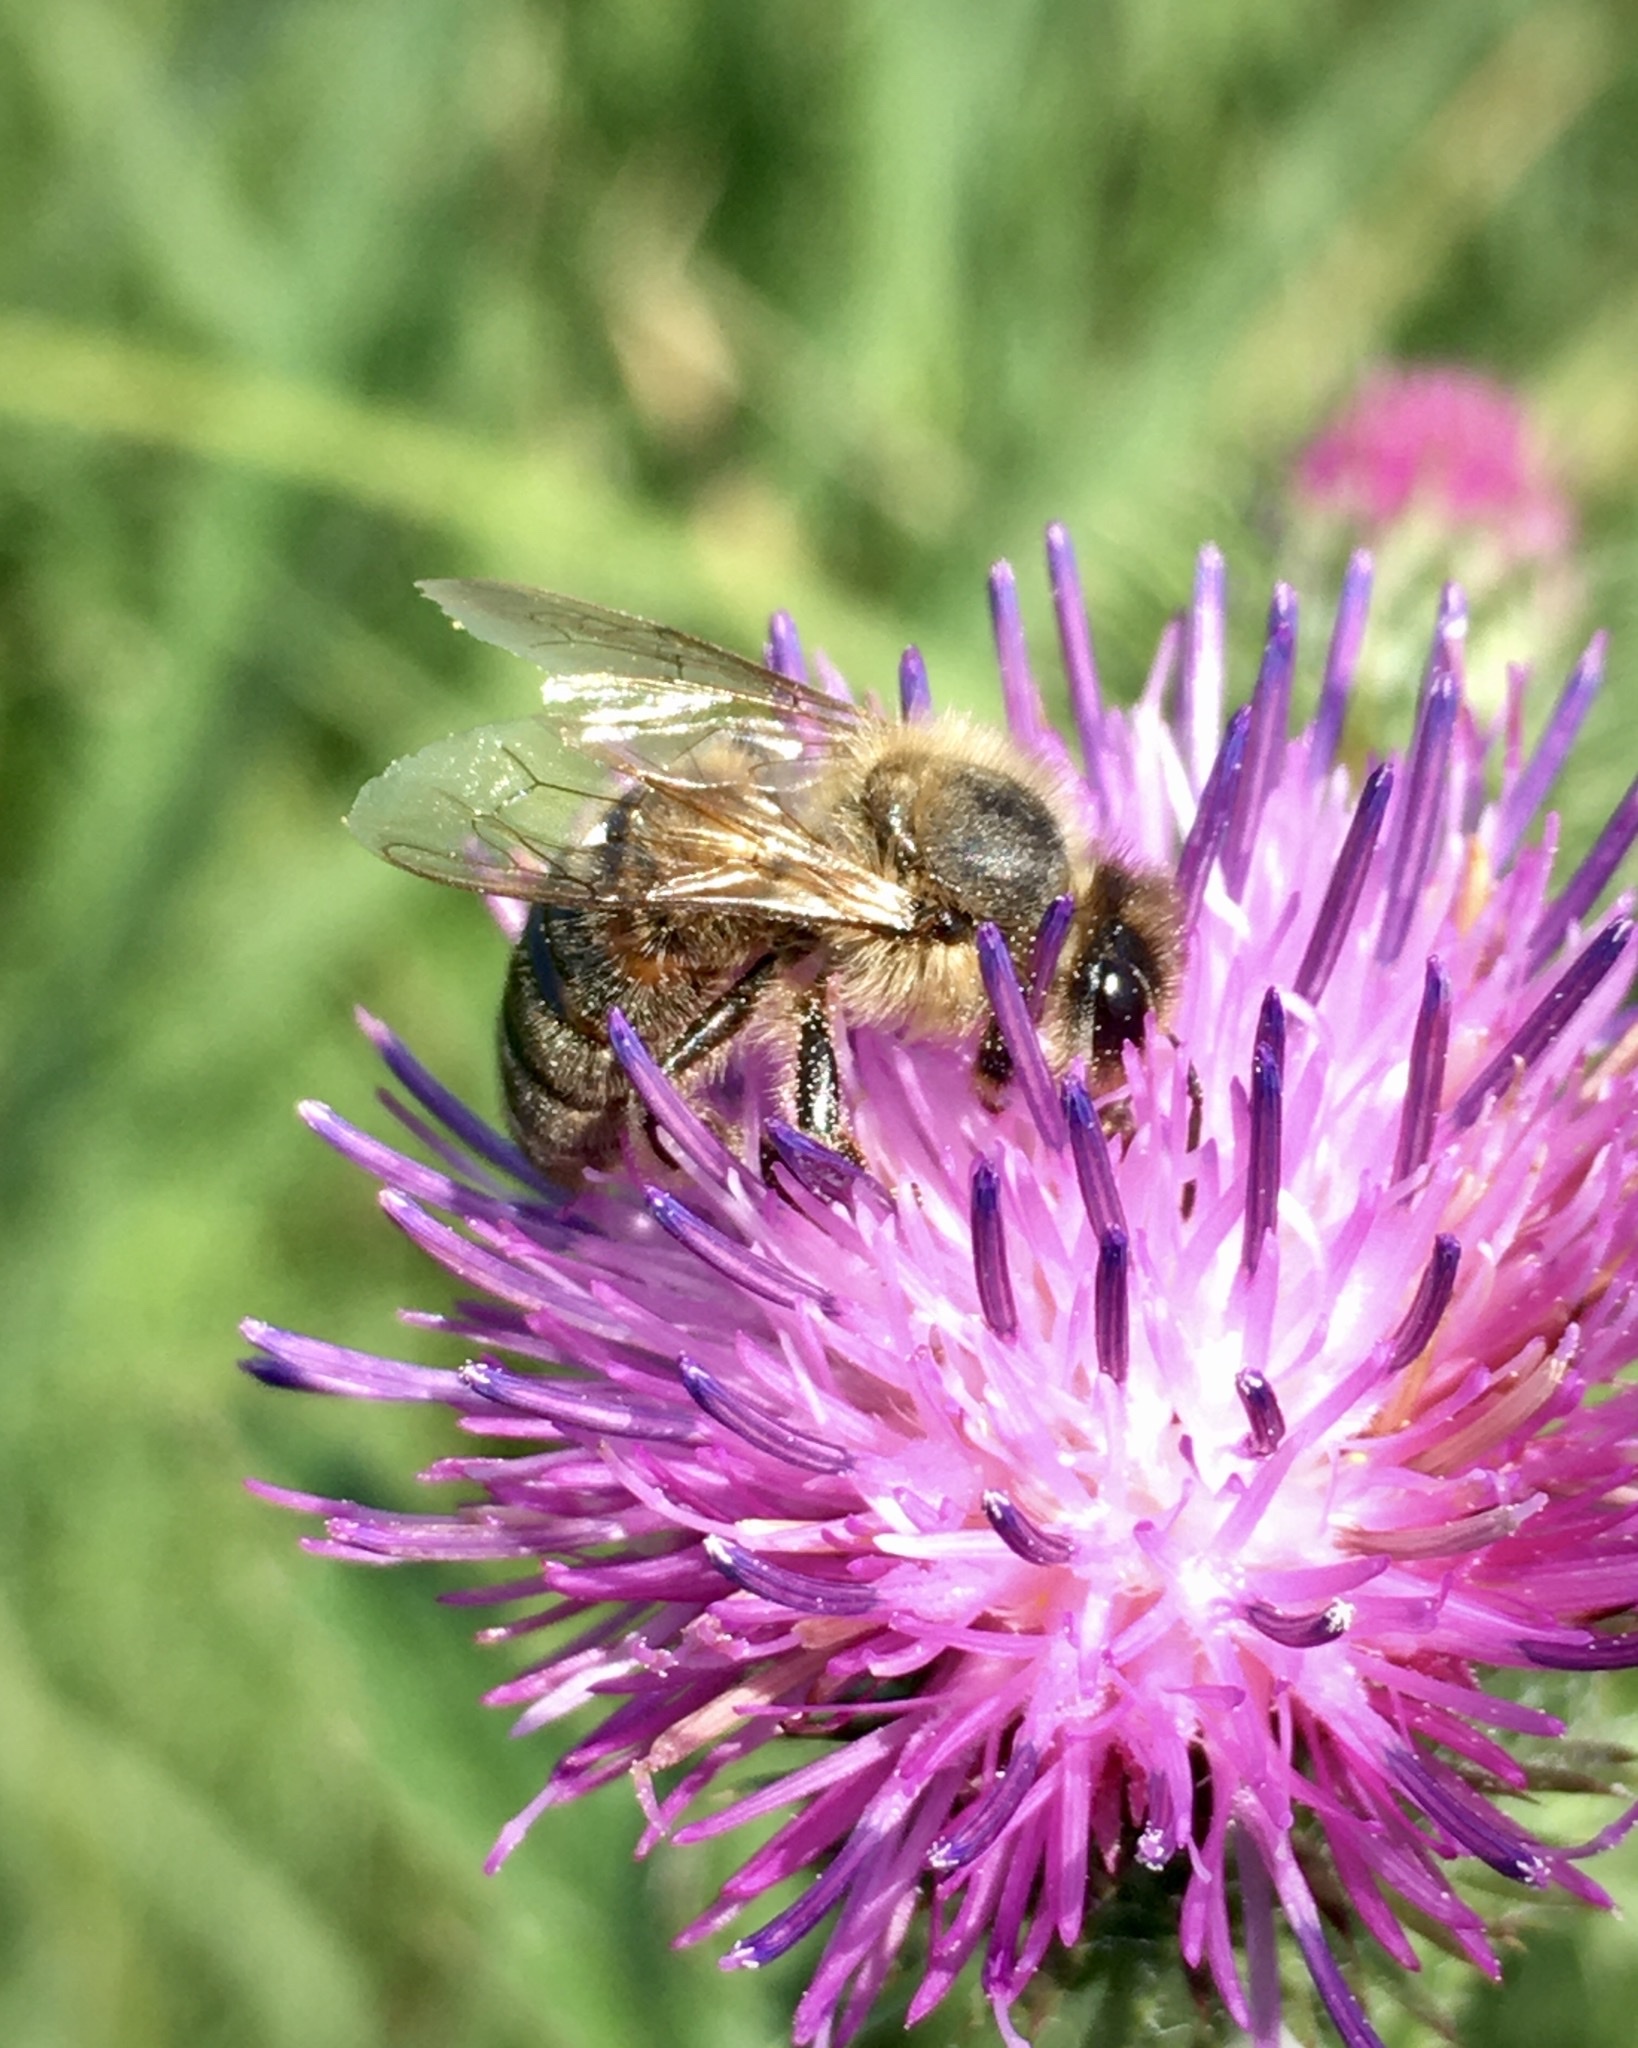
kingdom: Animalia
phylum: Arthropoda
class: Insecta
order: Hymenoptera
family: Apidae
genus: Apis
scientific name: Apis mellifera
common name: Honey bee
